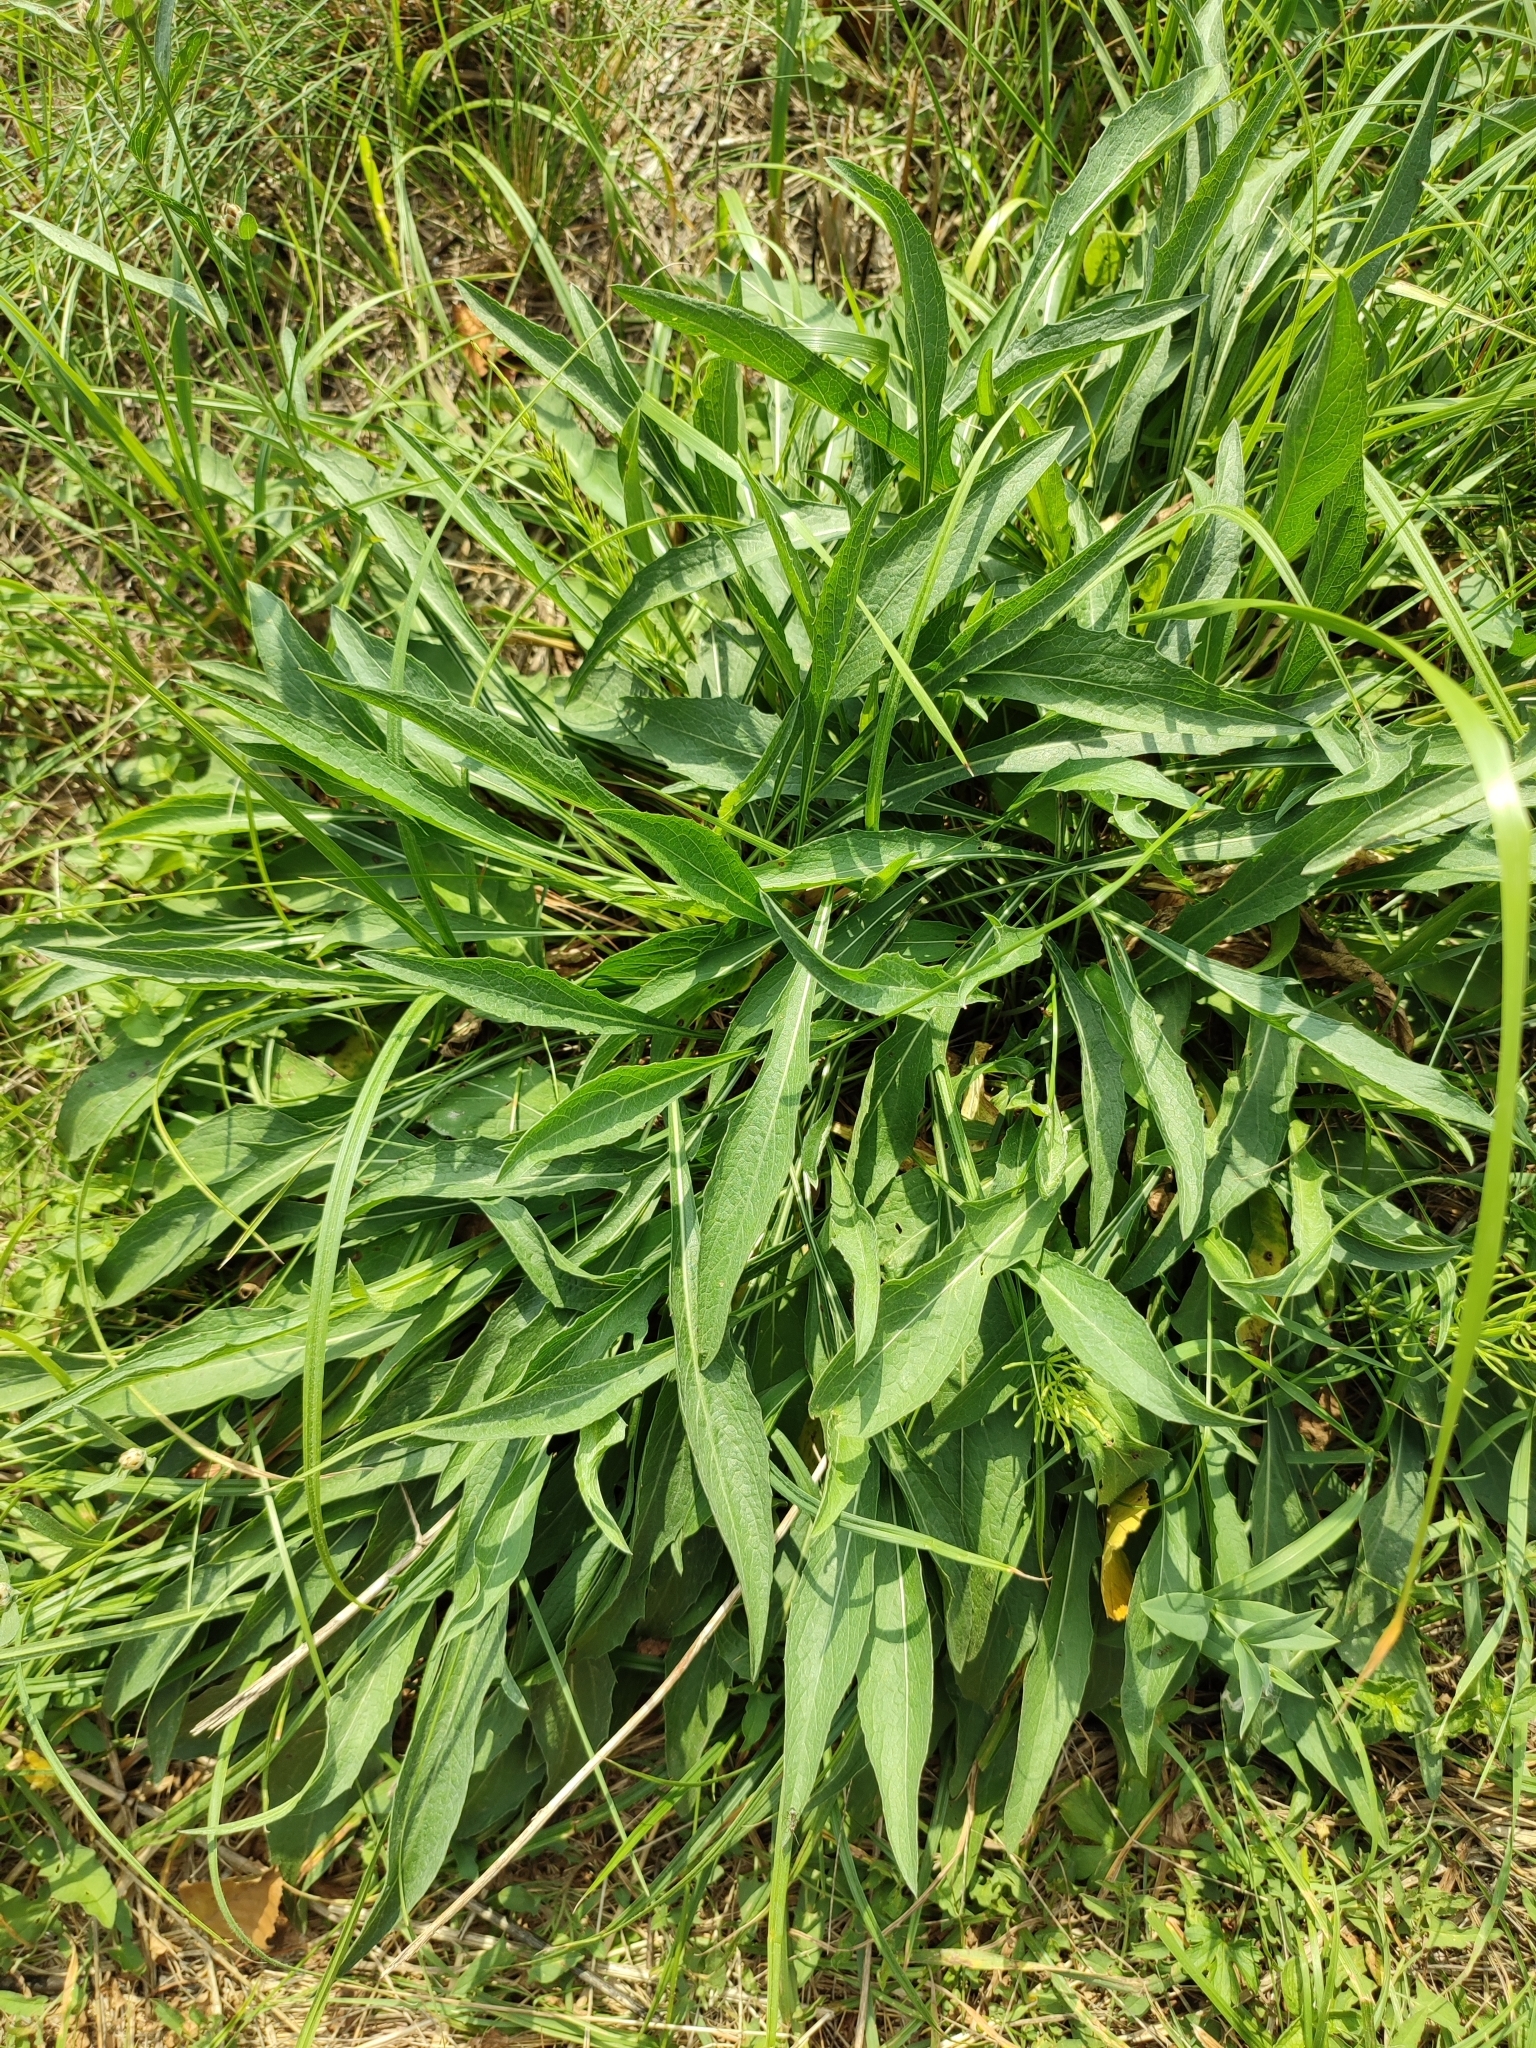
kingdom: Plantae
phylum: Tracheophyta
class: Magnoliopsida
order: Asterales
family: Asteraceae
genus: Centaurea
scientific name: Centaurea jacea
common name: Brown knapweed
